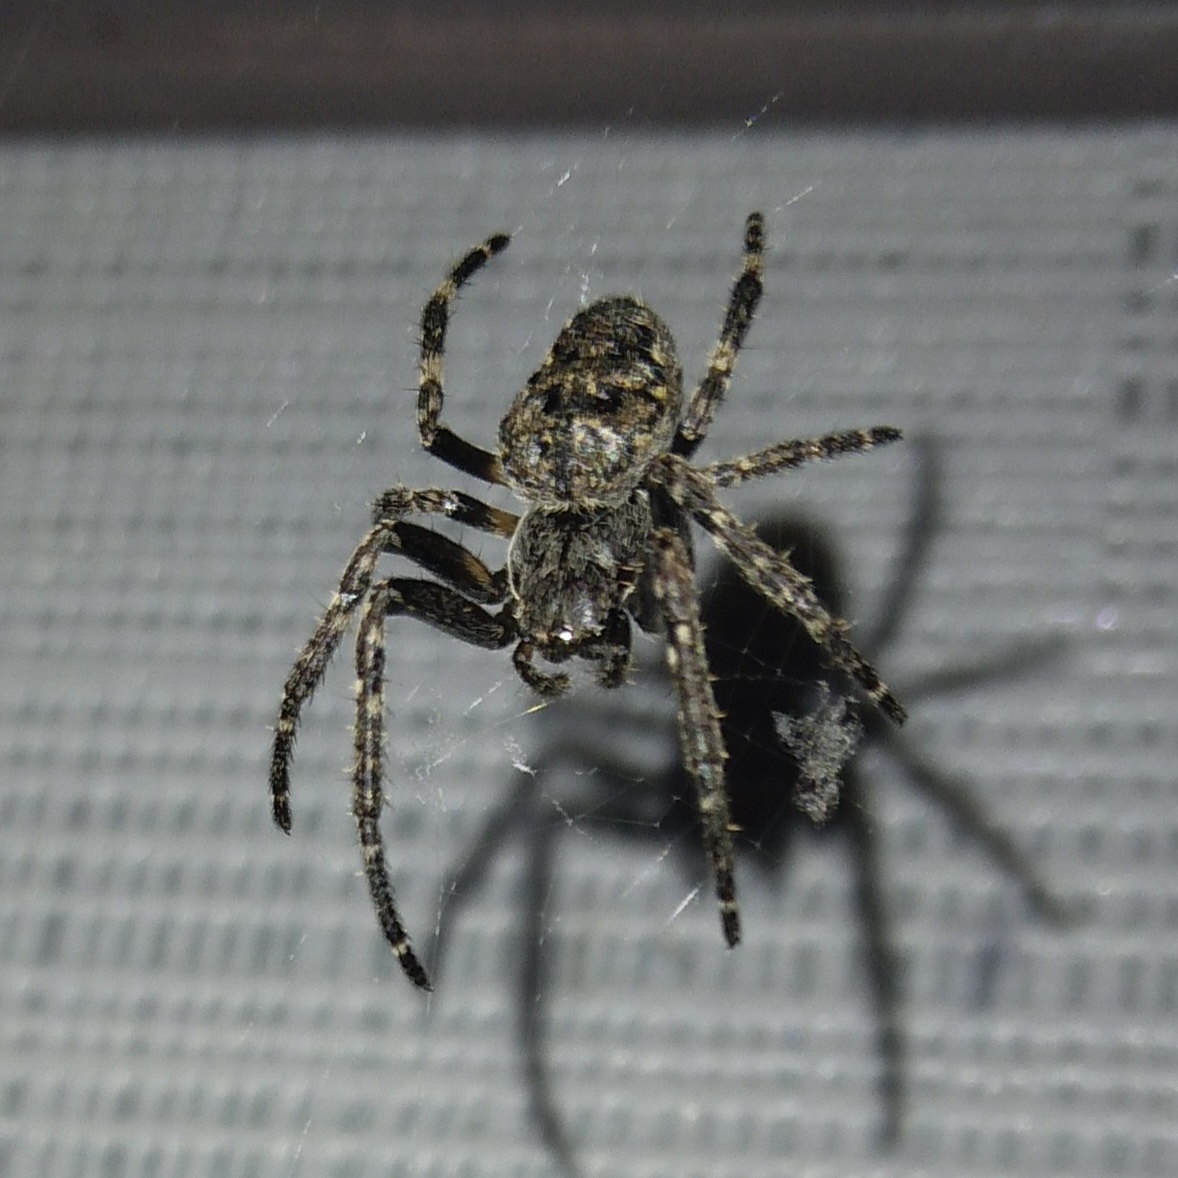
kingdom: Animalia
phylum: Arthropoda
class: Arachnida
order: Araneae
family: Araneidae
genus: Nuctenea
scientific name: Nuctenea umbratica
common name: Toad spider
